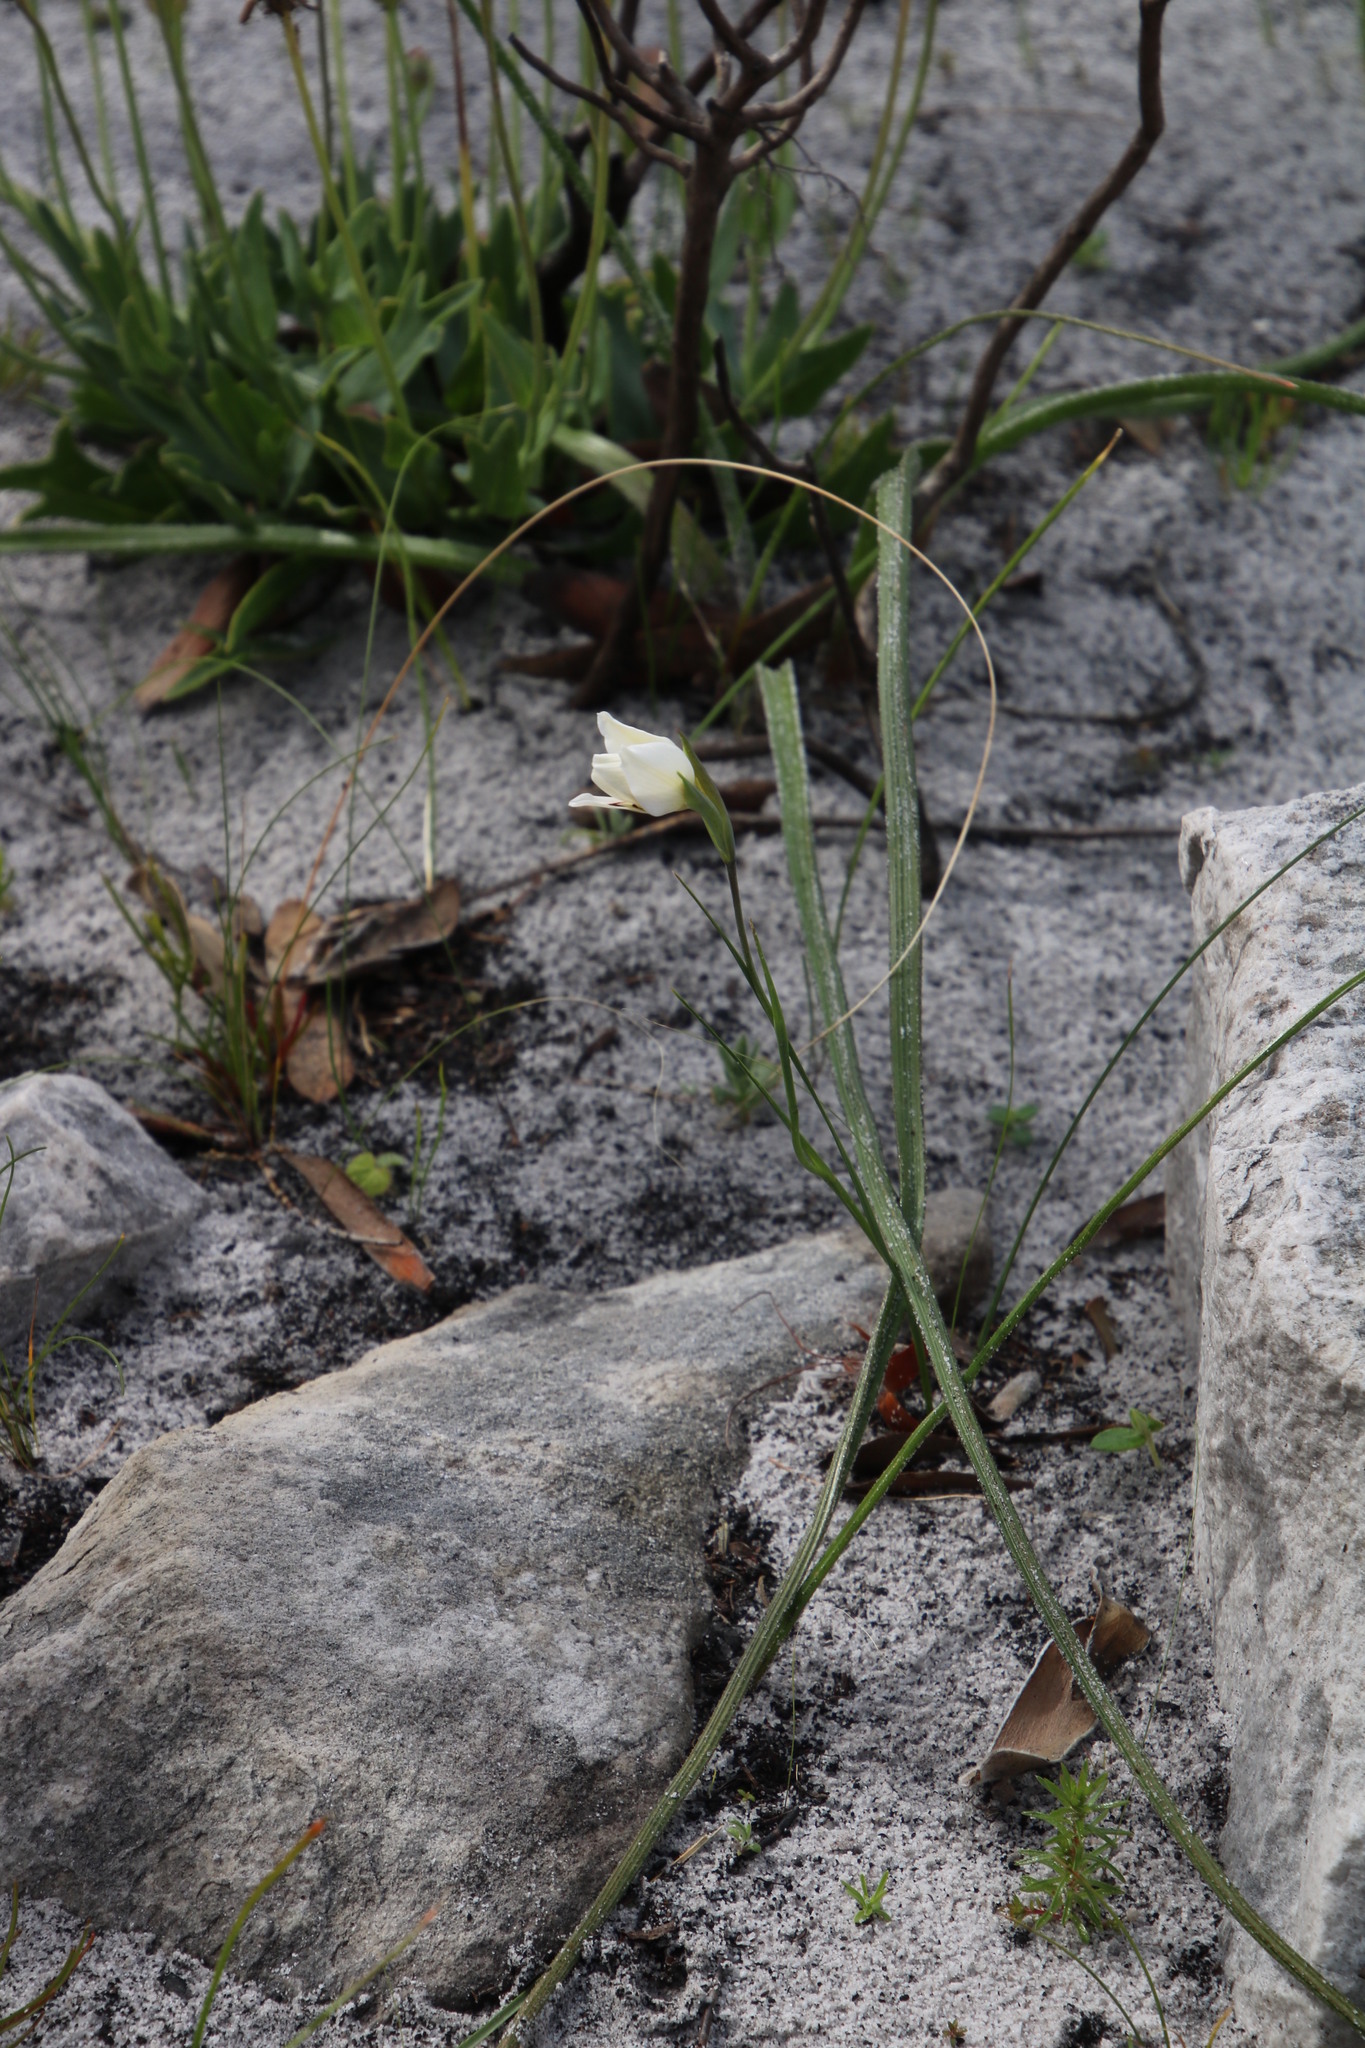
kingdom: Plantae
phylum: Tracheophyta
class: Liliopsida
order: Asparagales
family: Iridaceae
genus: Gladiolus
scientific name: Gladiolus debilis
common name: Painted-lady
